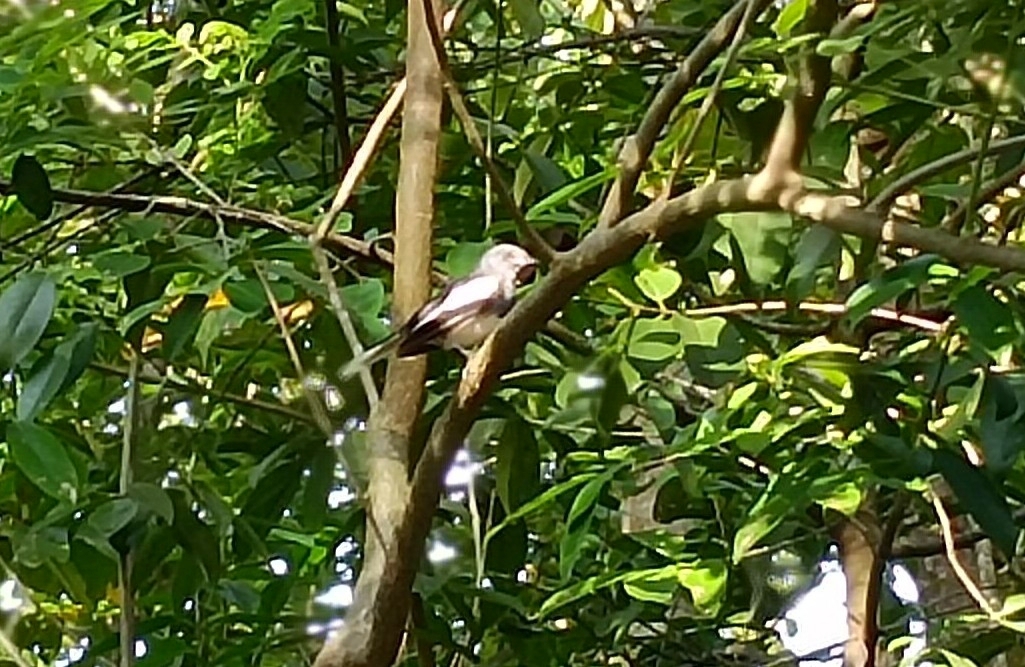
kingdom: Animalia
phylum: Chordata
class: Aves
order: Passeriformes
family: Muscicapidae
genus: Copsychus
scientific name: Copsychus saularis
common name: Oriental magpie-robin
